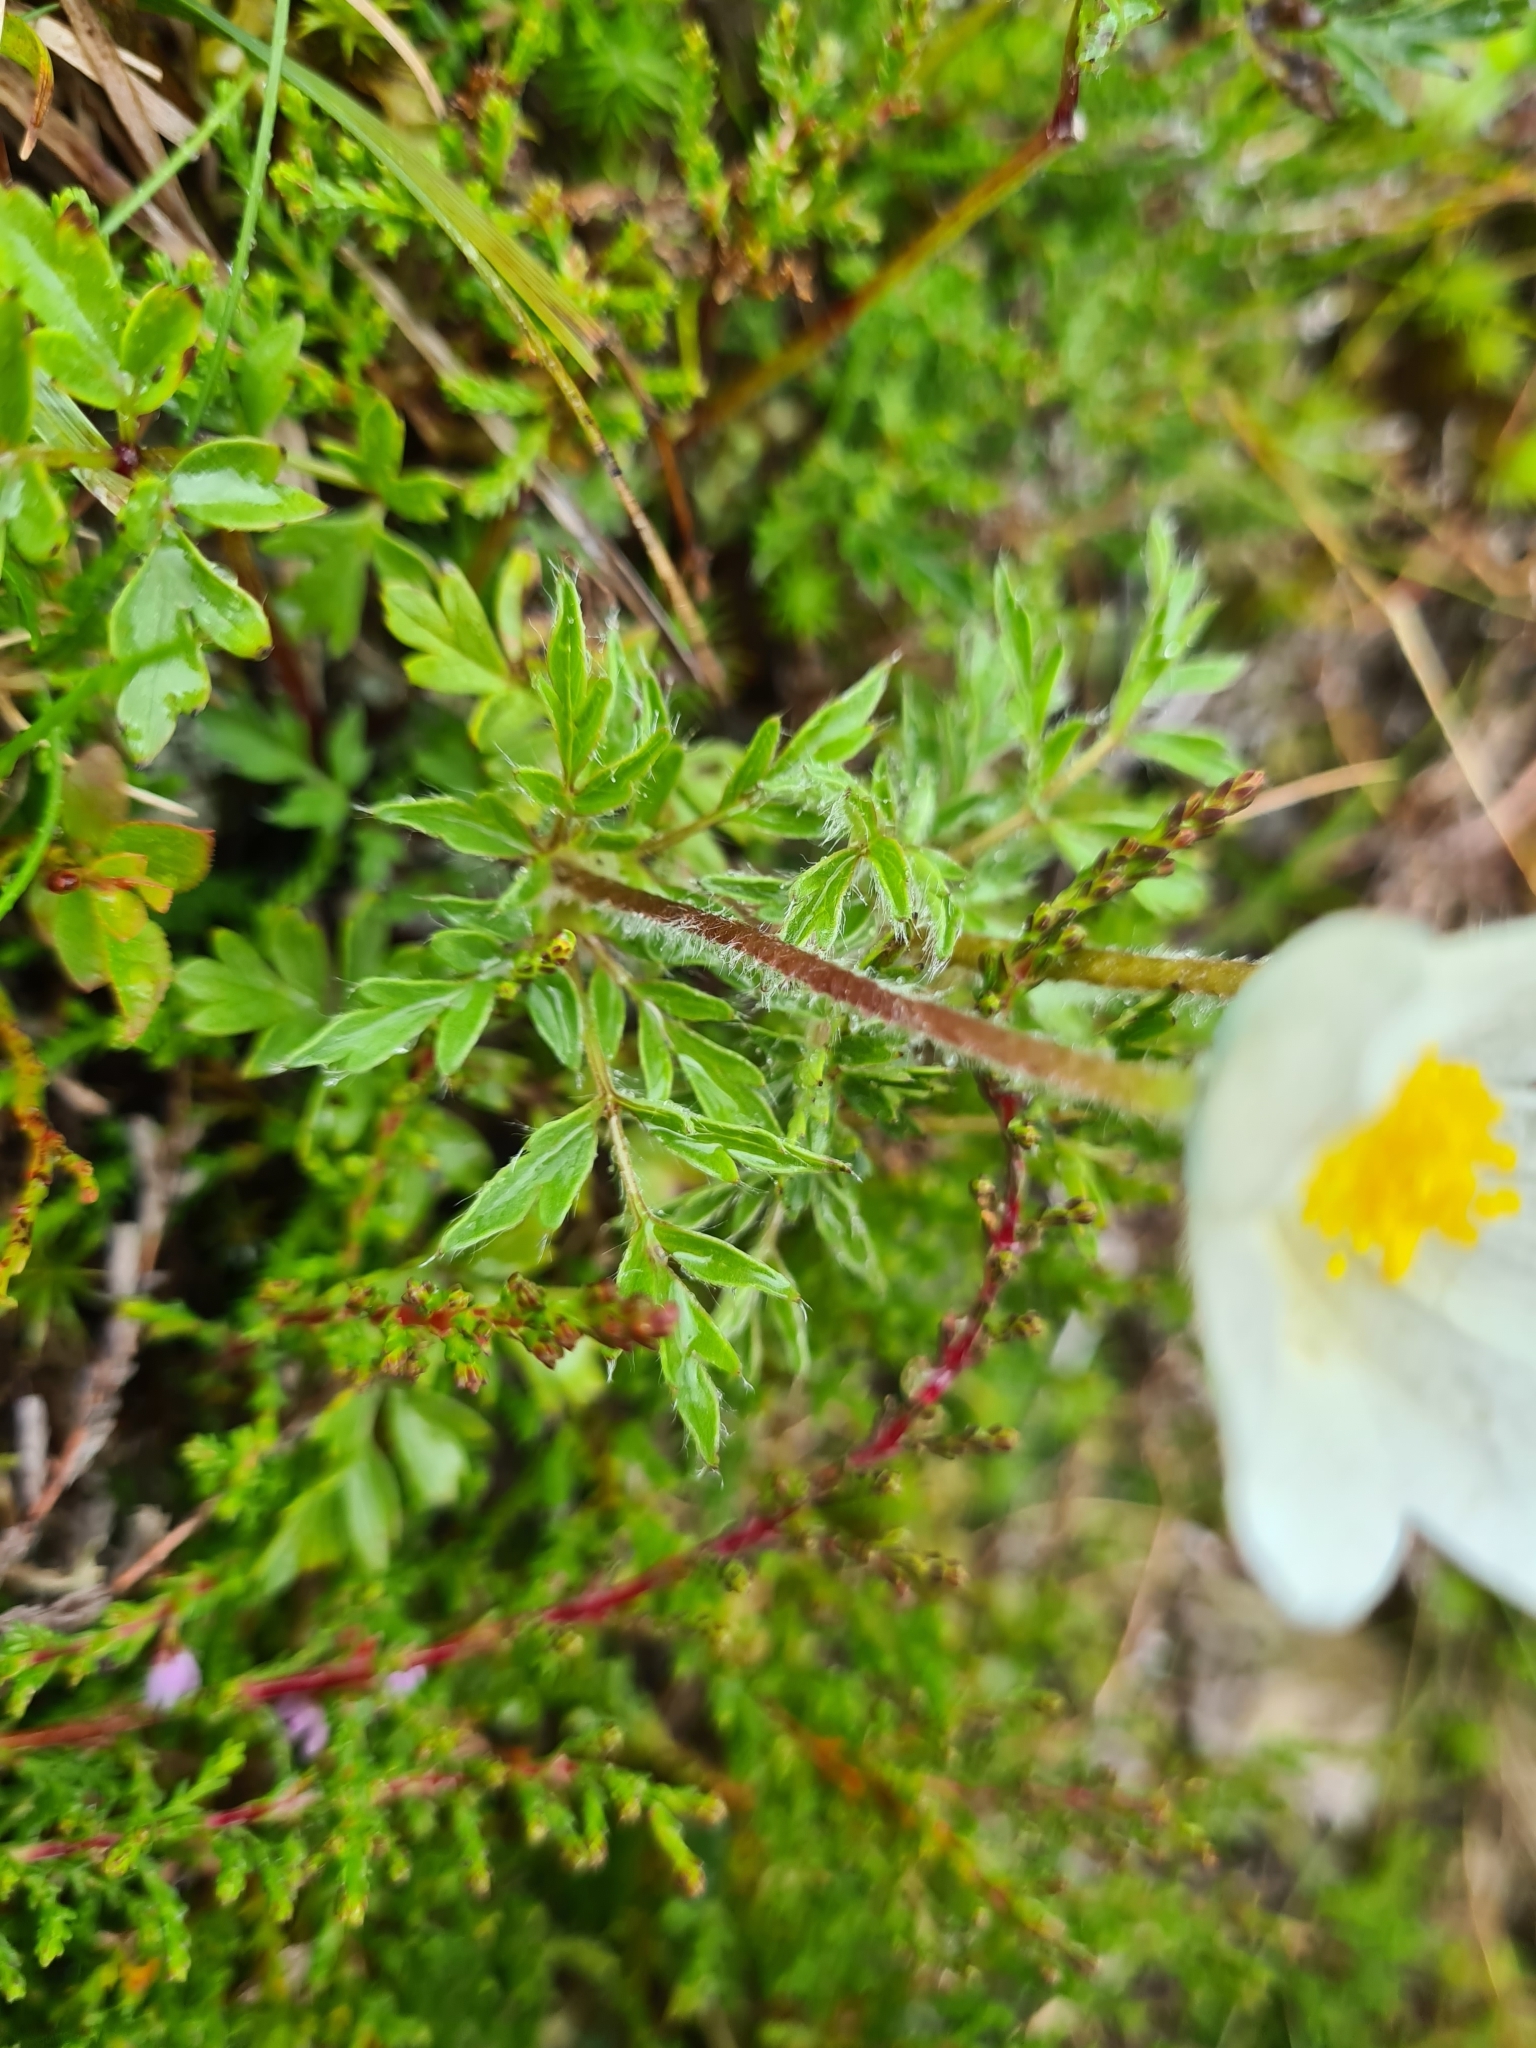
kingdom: Plantae
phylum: Tracheophyta
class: Magnoliopsida
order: Ranunculales
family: Ranunculaceae
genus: Pulsatilla
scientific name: Pulsatilla alpina
